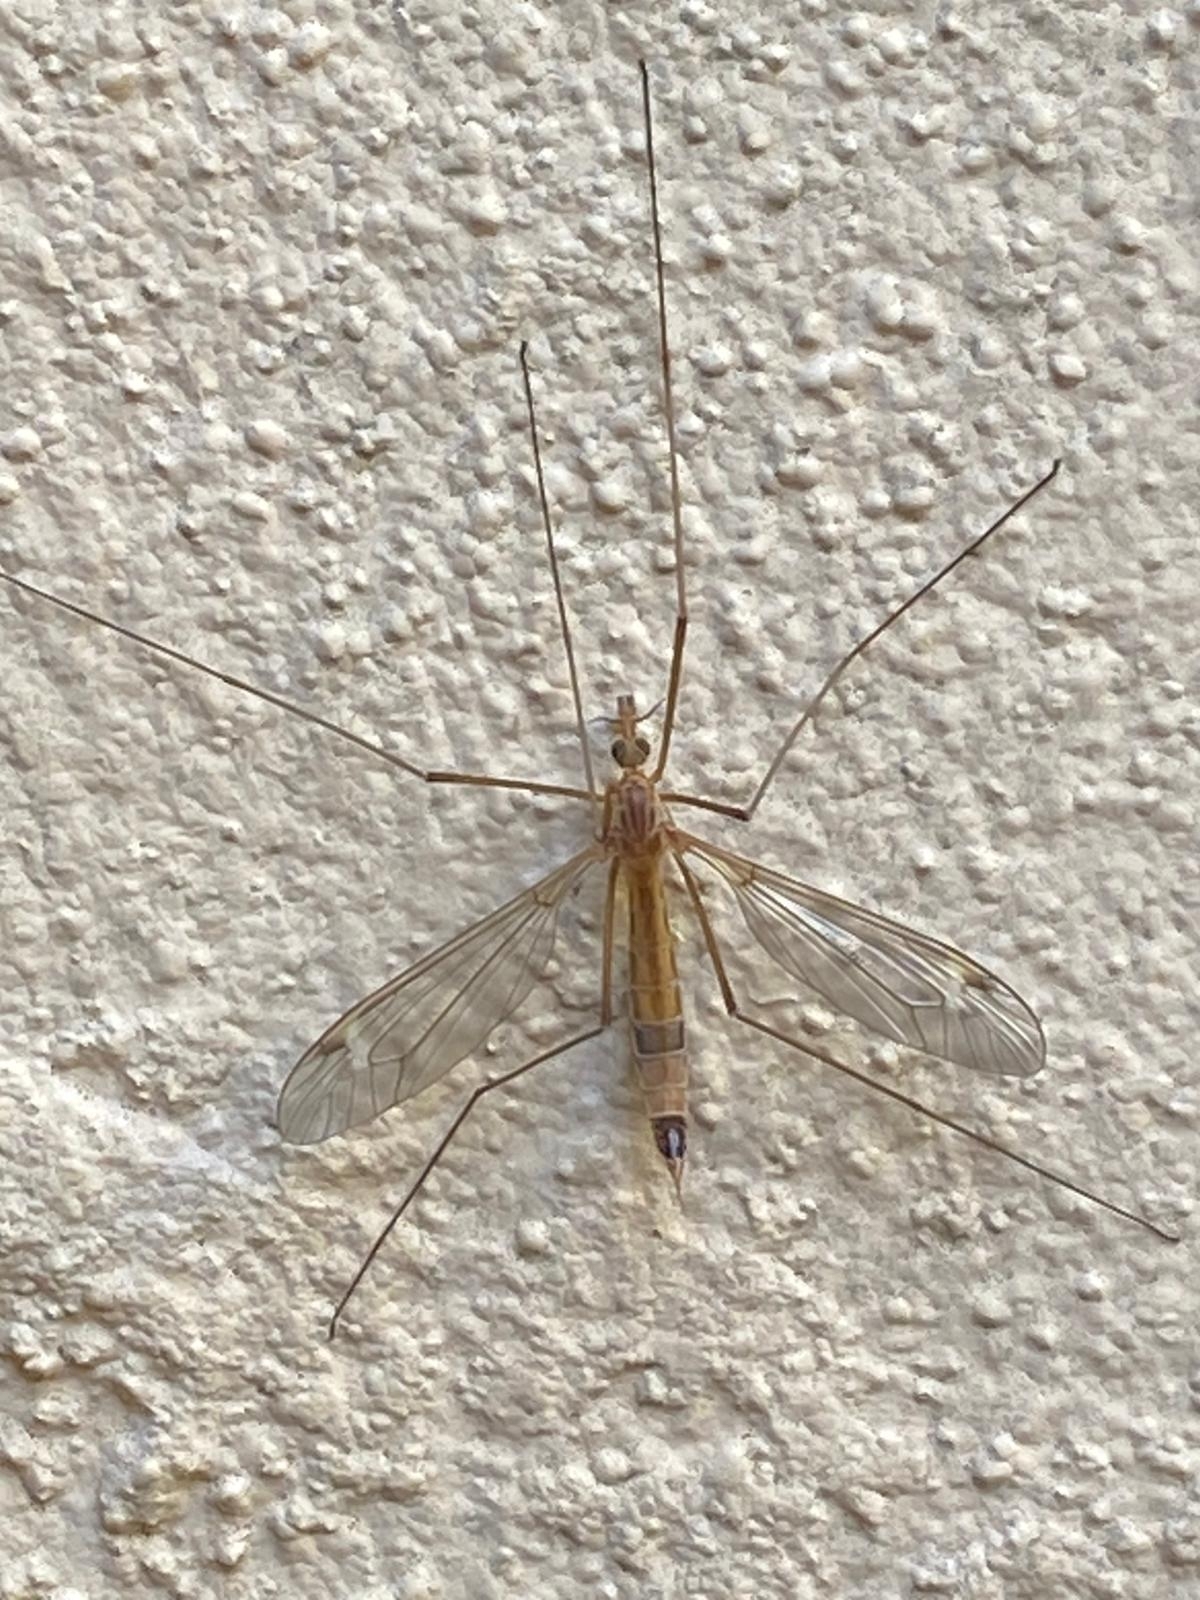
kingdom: Animalia
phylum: Arthropoda
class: Insecta
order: Diptera
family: Tipulidae
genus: Tipula
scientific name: Tipula lunata
